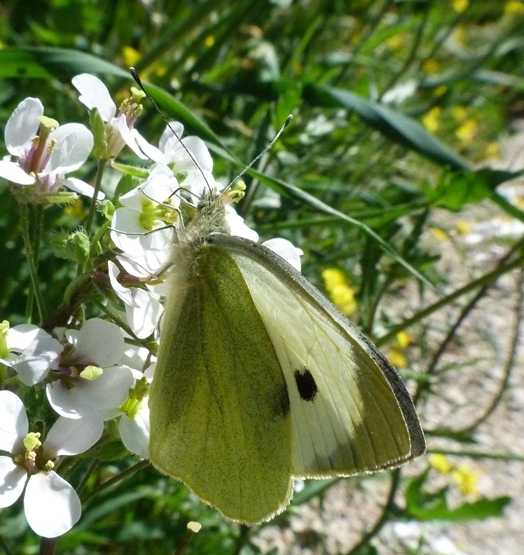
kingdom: Animalia
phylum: Arthropoda
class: Insecta
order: Lepidoptera
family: Pieridae
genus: Pieris
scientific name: Pieris brassicae
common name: Large white
